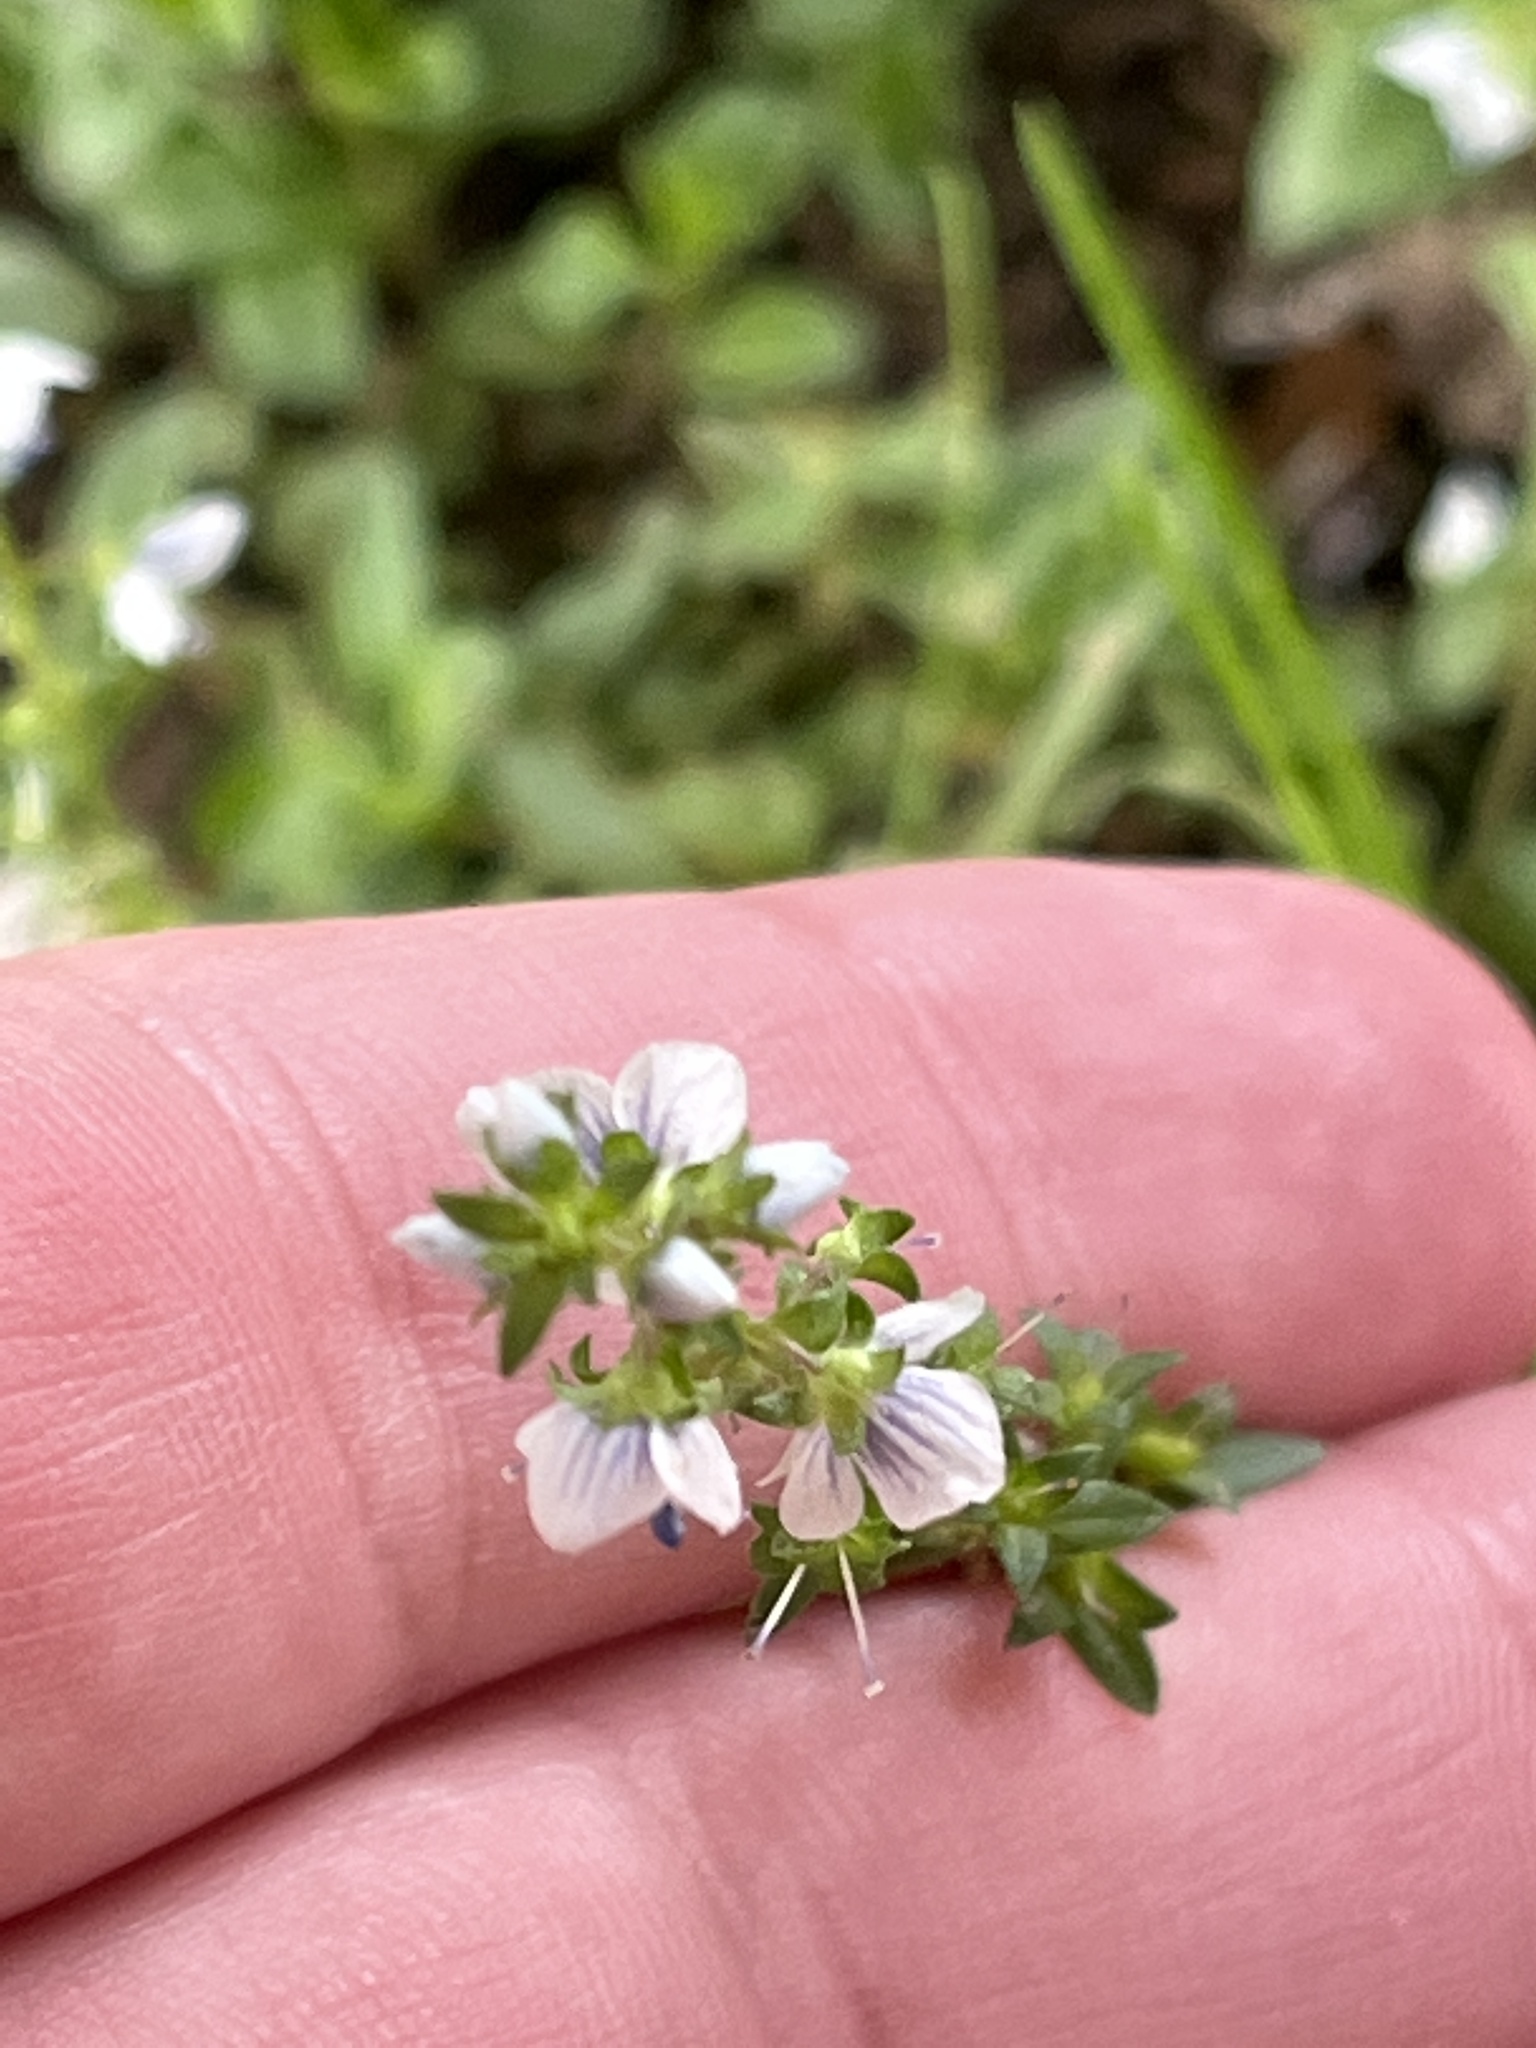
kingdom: Plantae
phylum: Tracheophyta
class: Magnoliopsida
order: Lamiales
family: Plantaginaceae
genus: Veronica
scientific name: Veronica serpyllifolia
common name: Thyme-leaved speedwell
